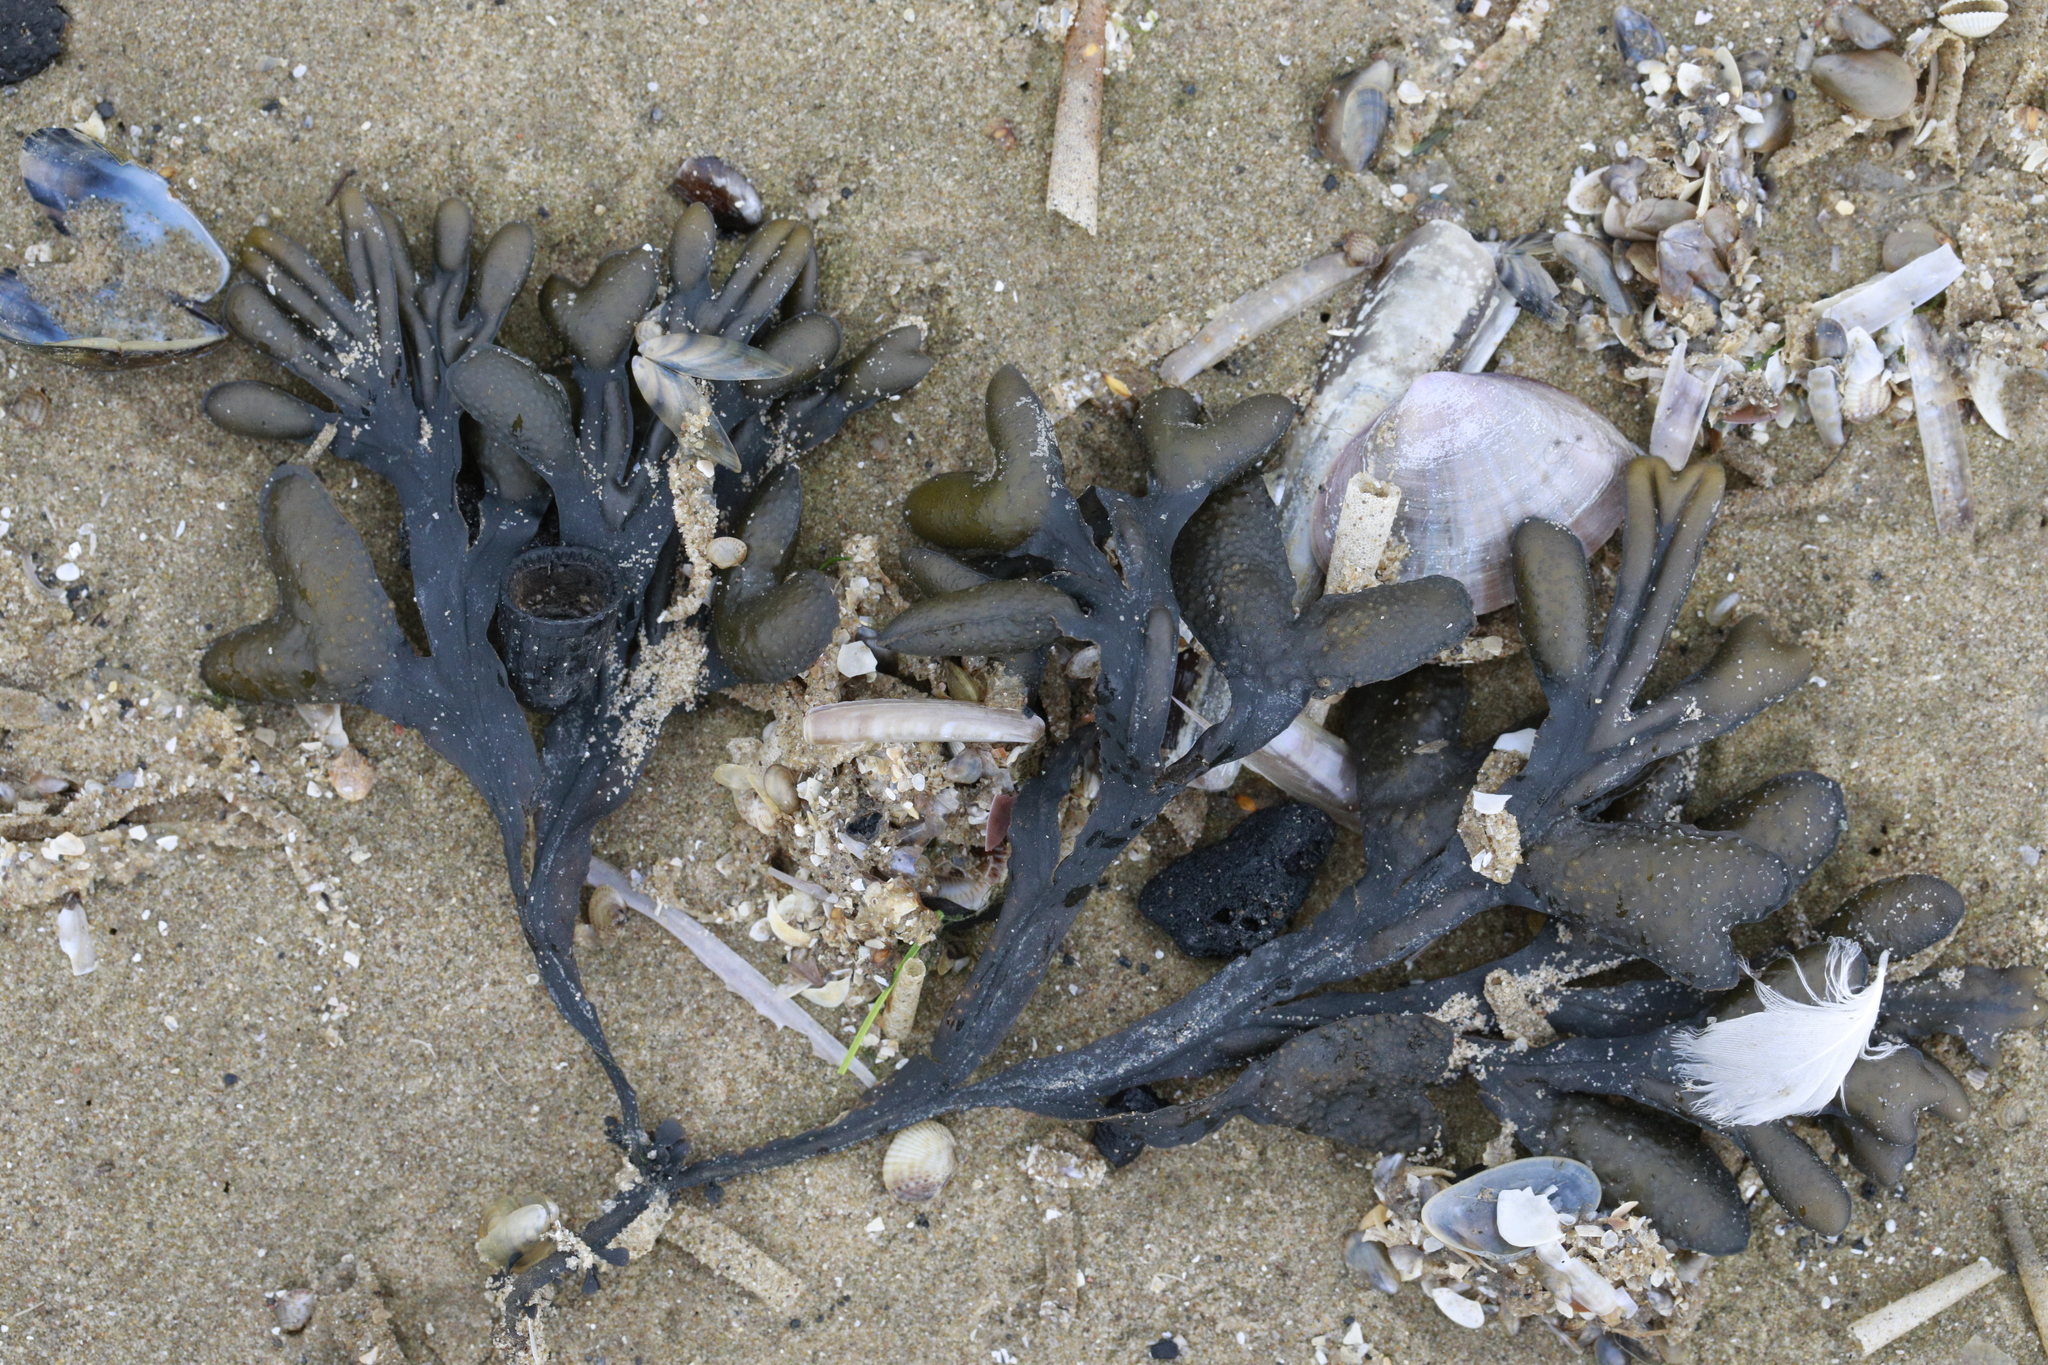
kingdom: Chromista
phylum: Ochrophyta
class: Phaeophyceae
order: Fucales
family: Fucaceae
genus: Fucus
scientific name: Fucus ceranoides
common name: Horned wrack
